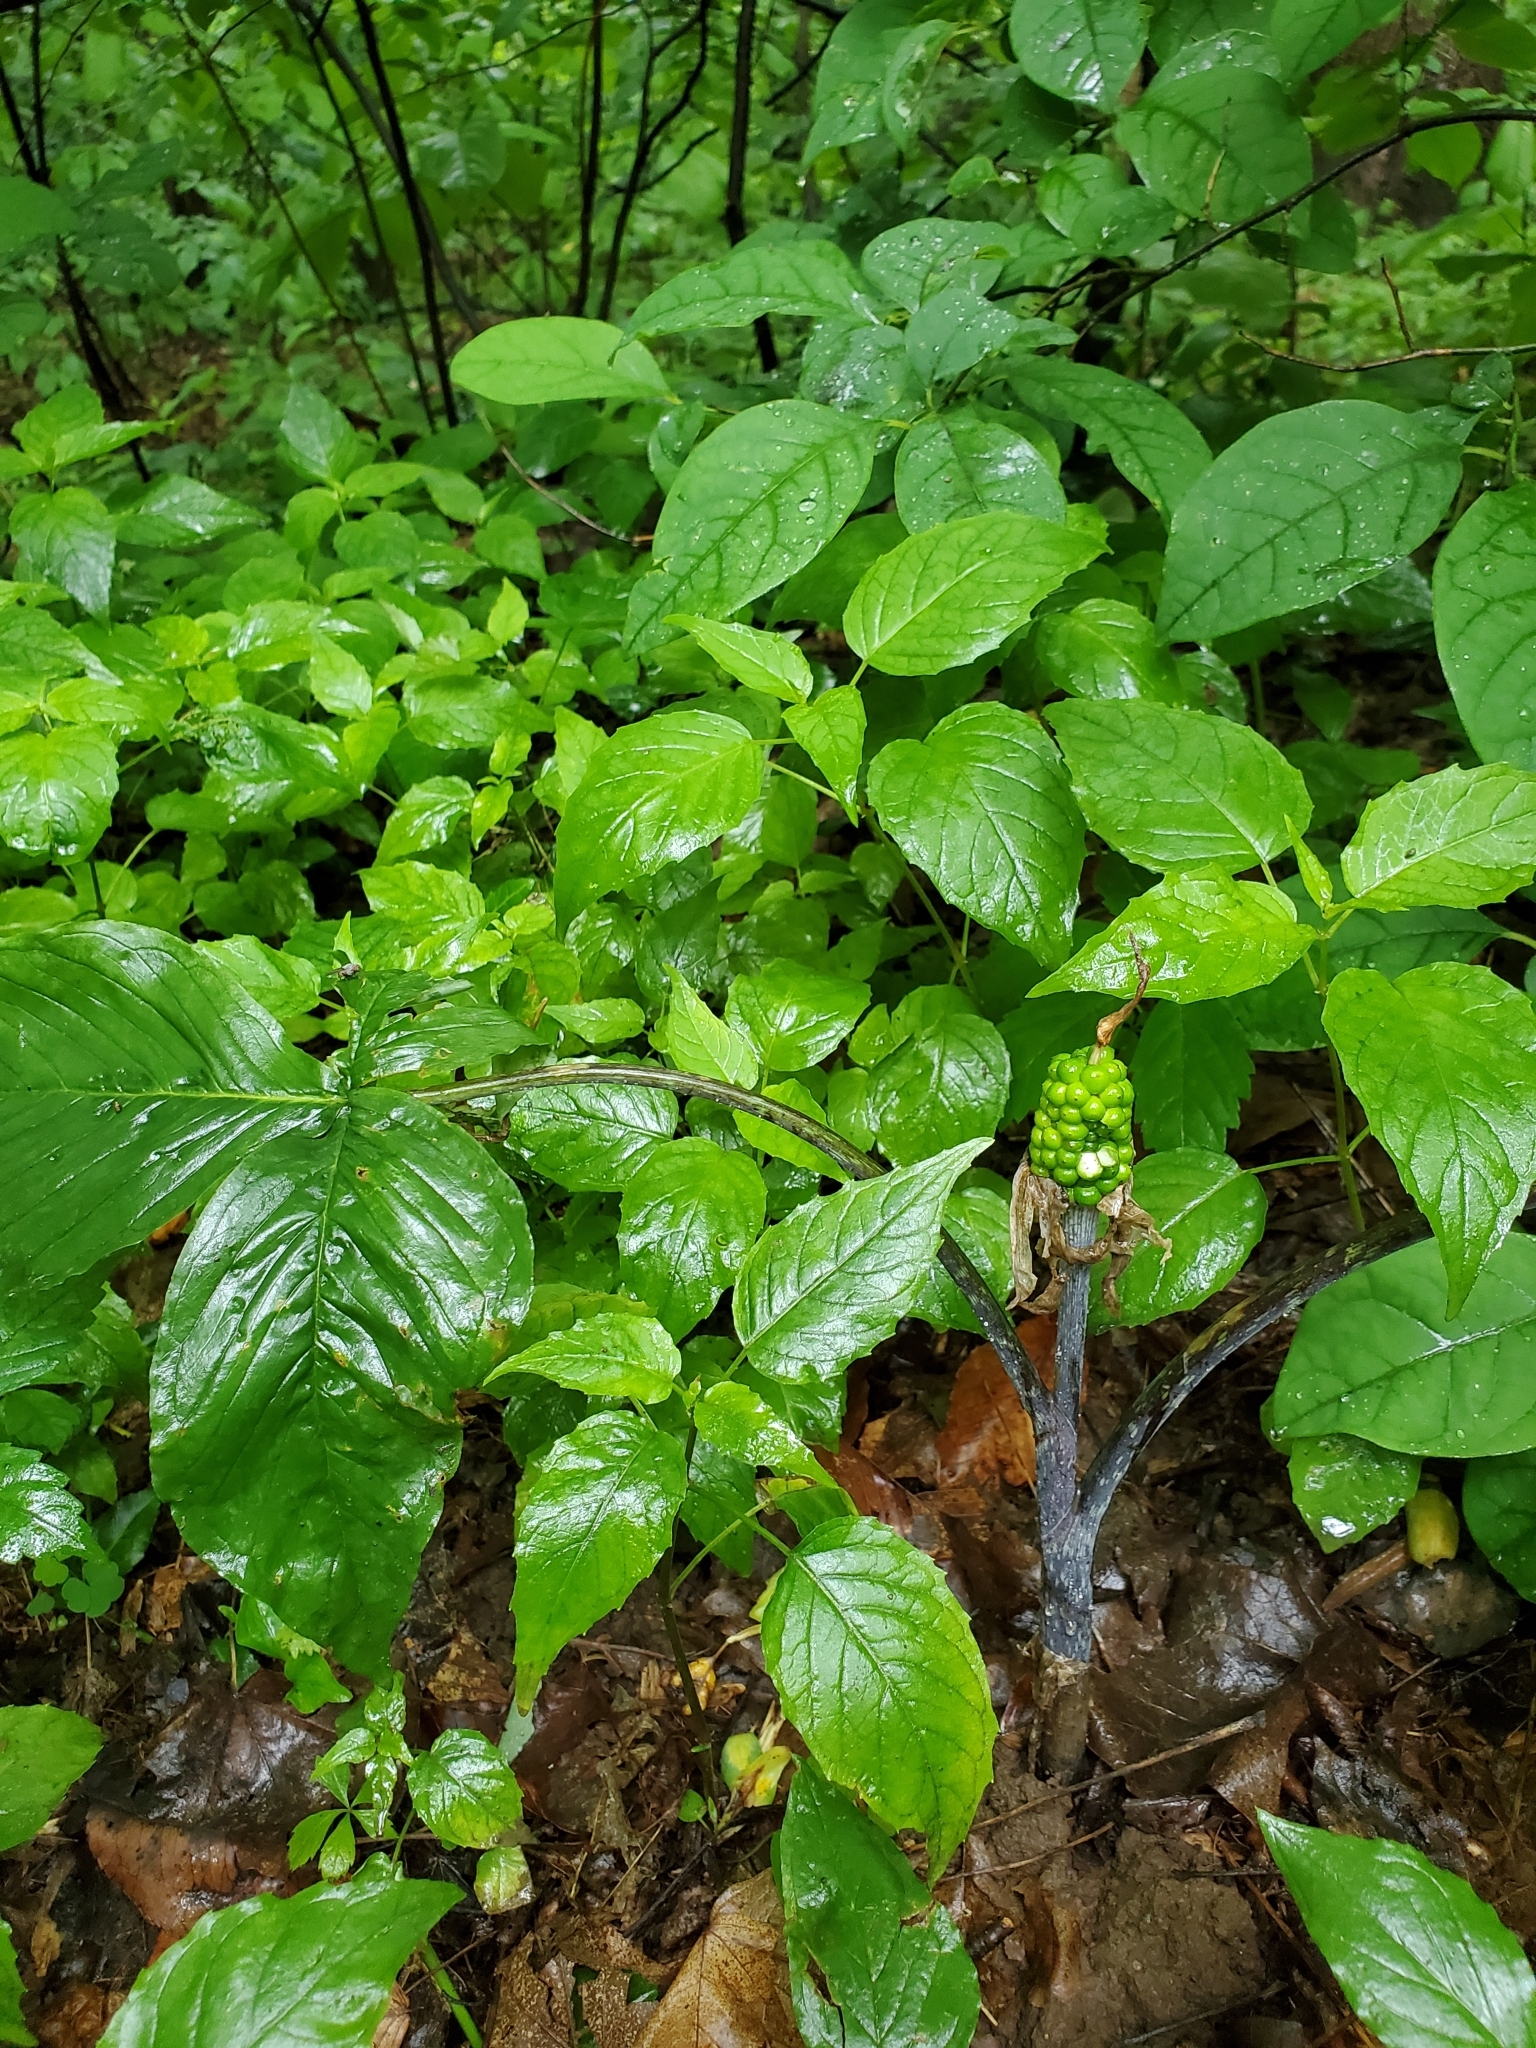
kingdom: Plantae
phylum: Tracheophyta
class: Liliopsida
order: Alismatales
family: Araceae
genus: Arisaema
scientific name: Arisaema triphyllum
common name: Jack-in-the-pulpit
